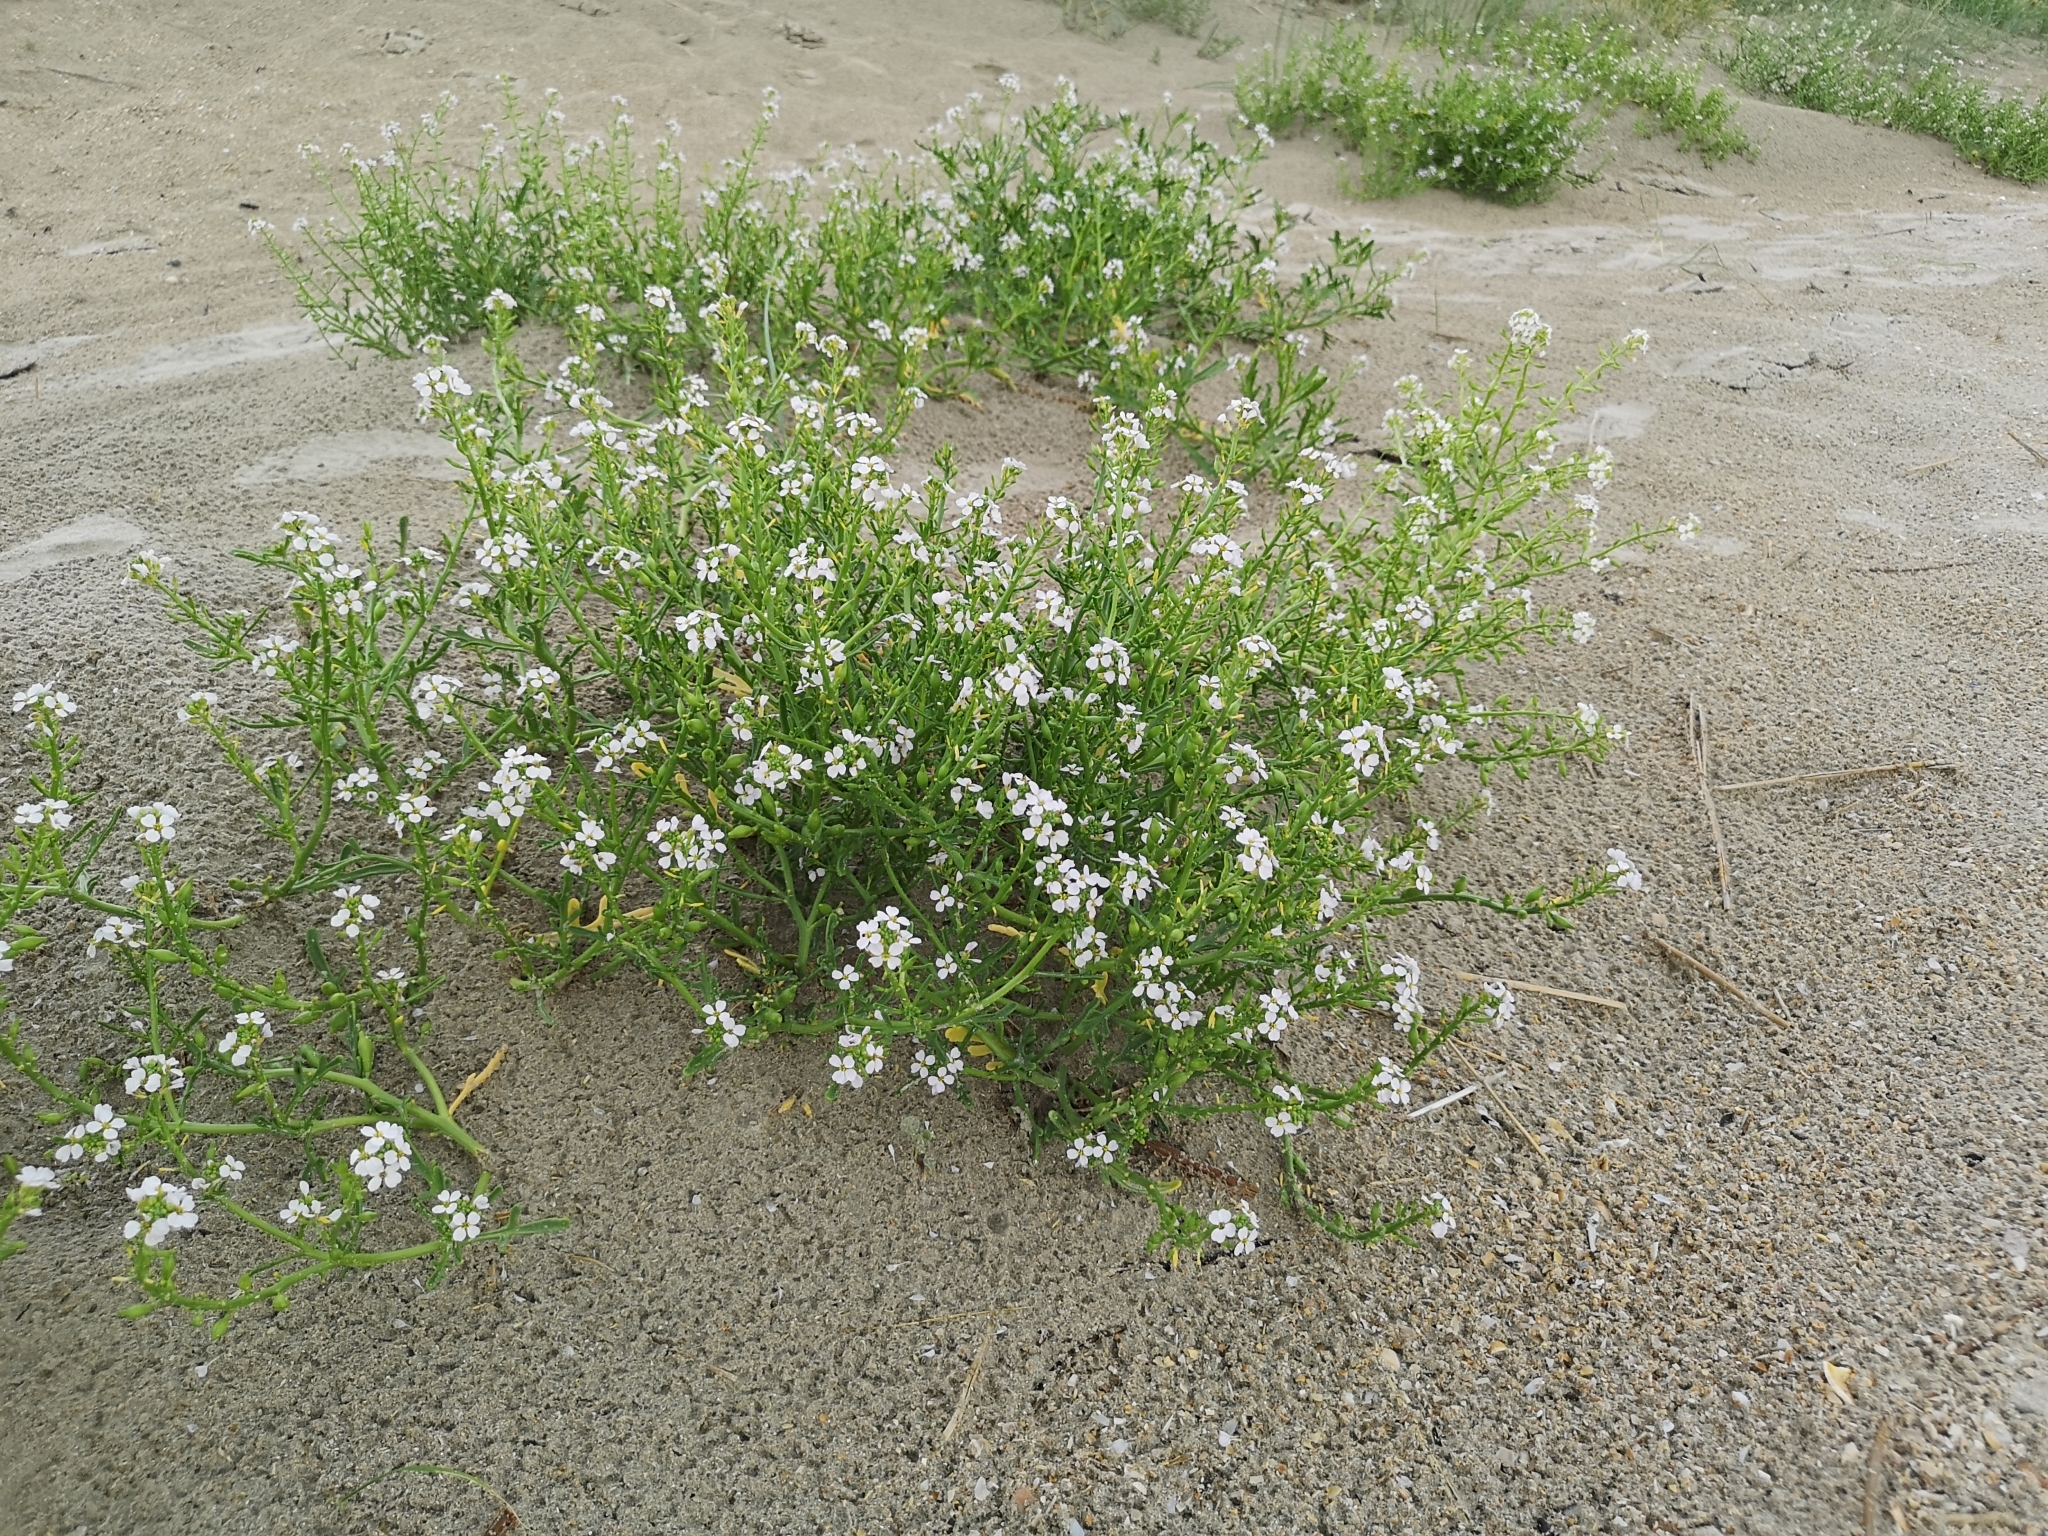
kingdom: Plantae
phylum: Tracheophyta
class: Magnoliopsida
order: Brassicales
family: Brassicaceae
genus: Cakile
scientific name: Cakile maritima
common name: Sea rocket
